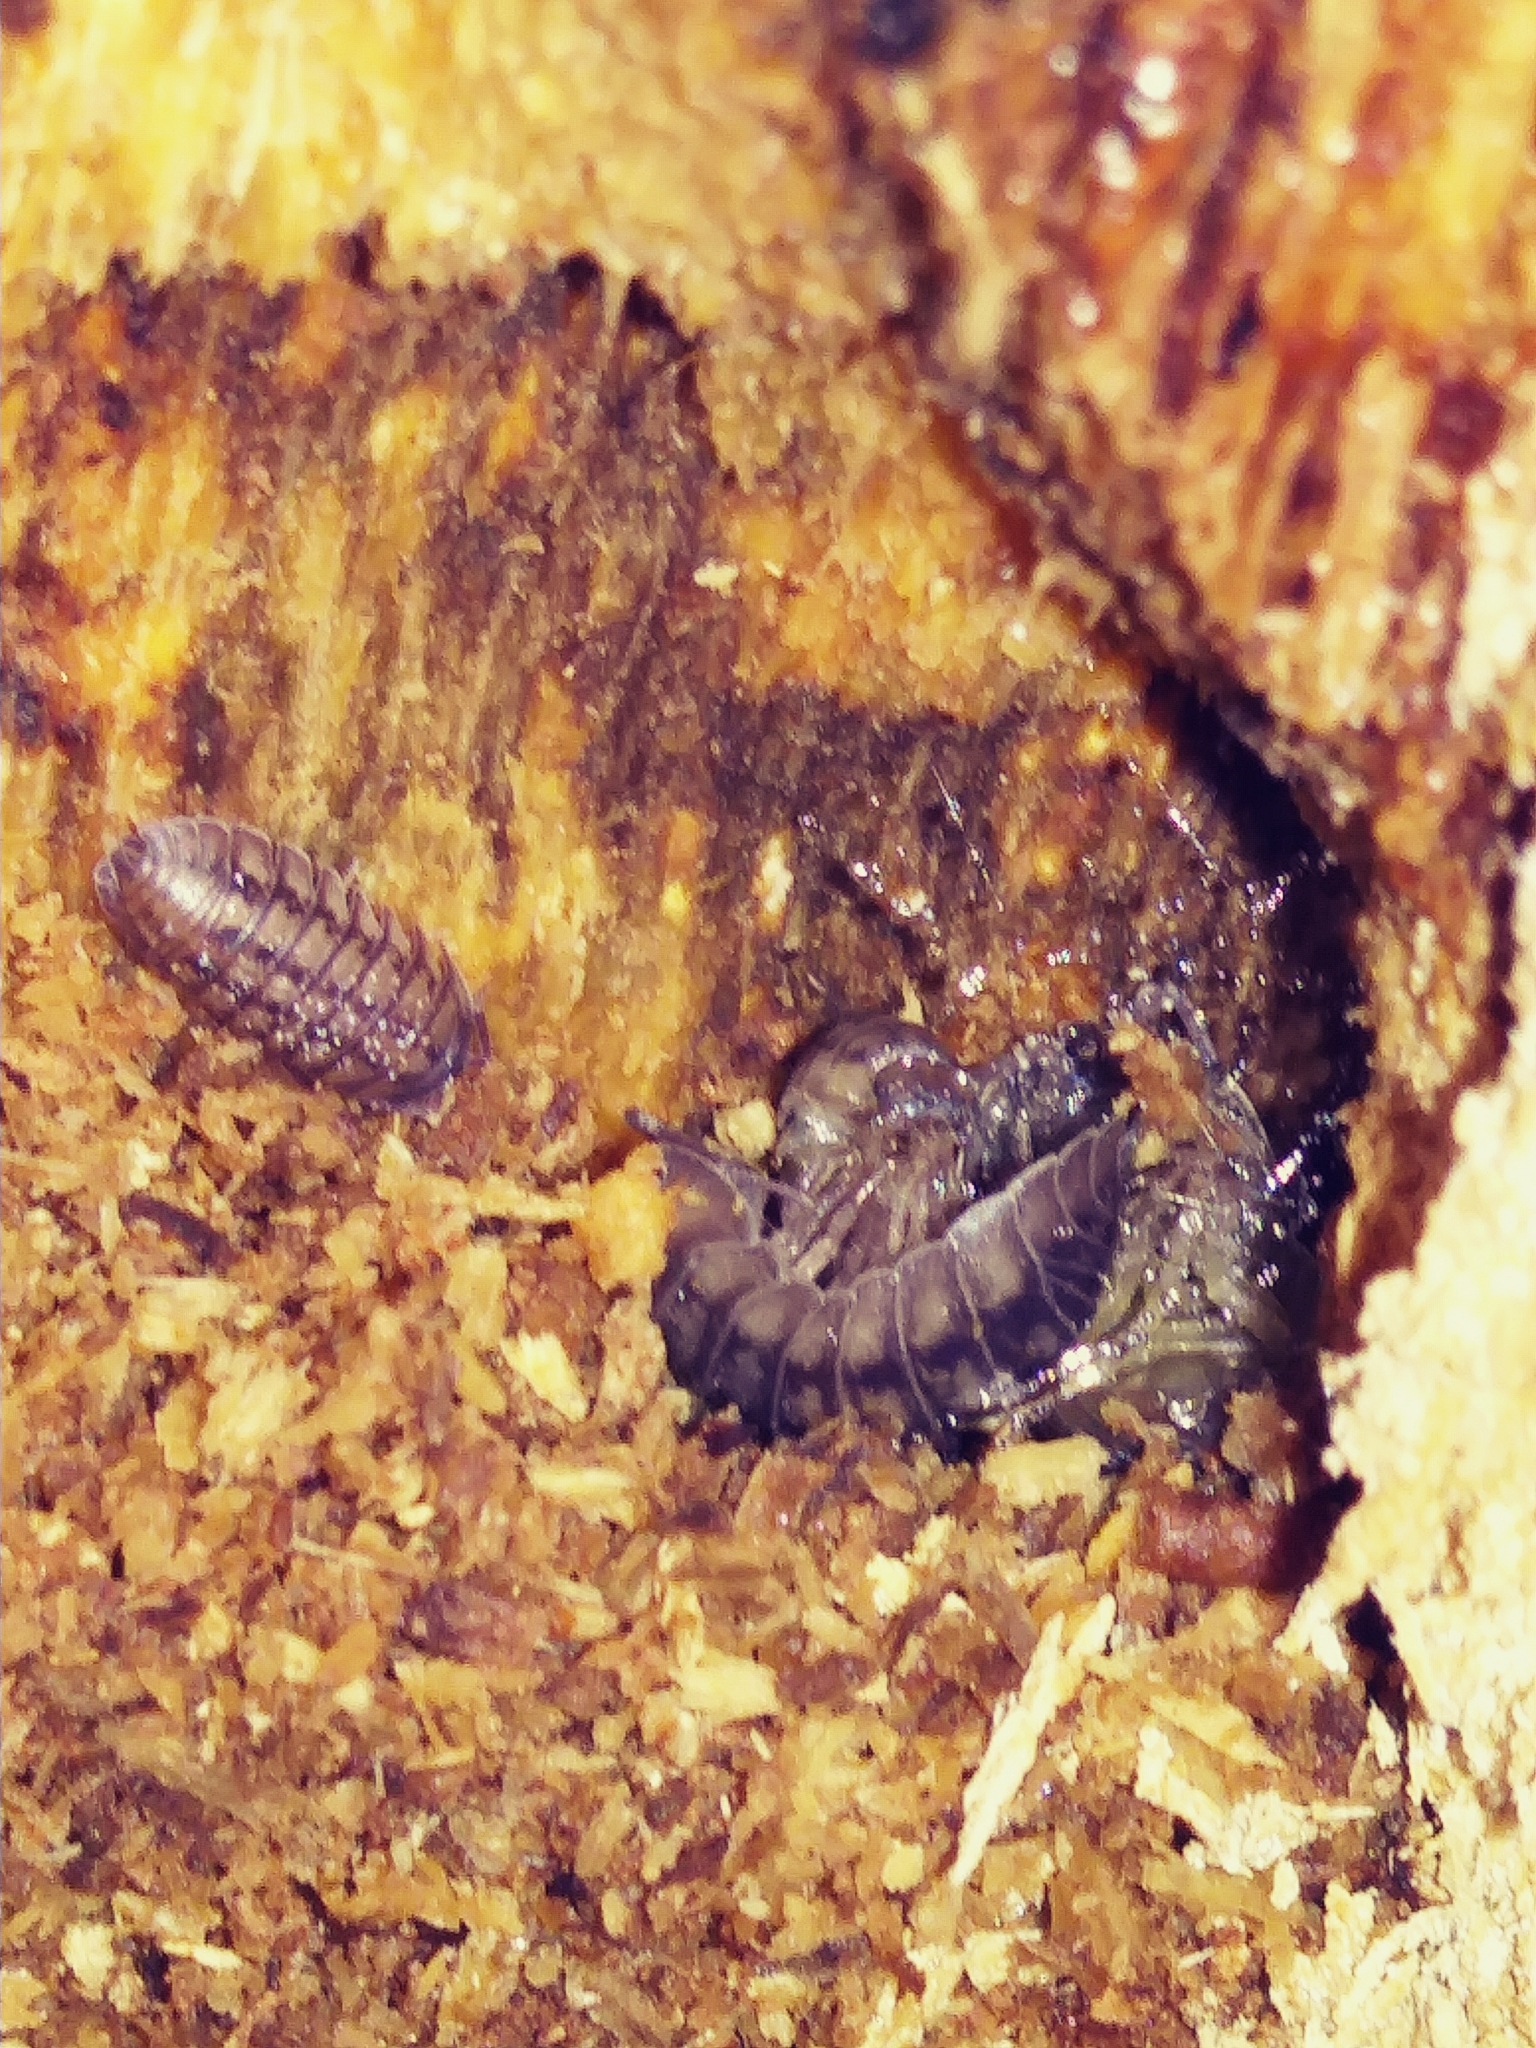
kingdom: Animalia
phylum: Arthropoda
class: Malacostraca
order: Isopoda
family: Armadillidiidae
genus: Armadillidium
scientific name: Armadillidium nasatum
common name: Isopod
